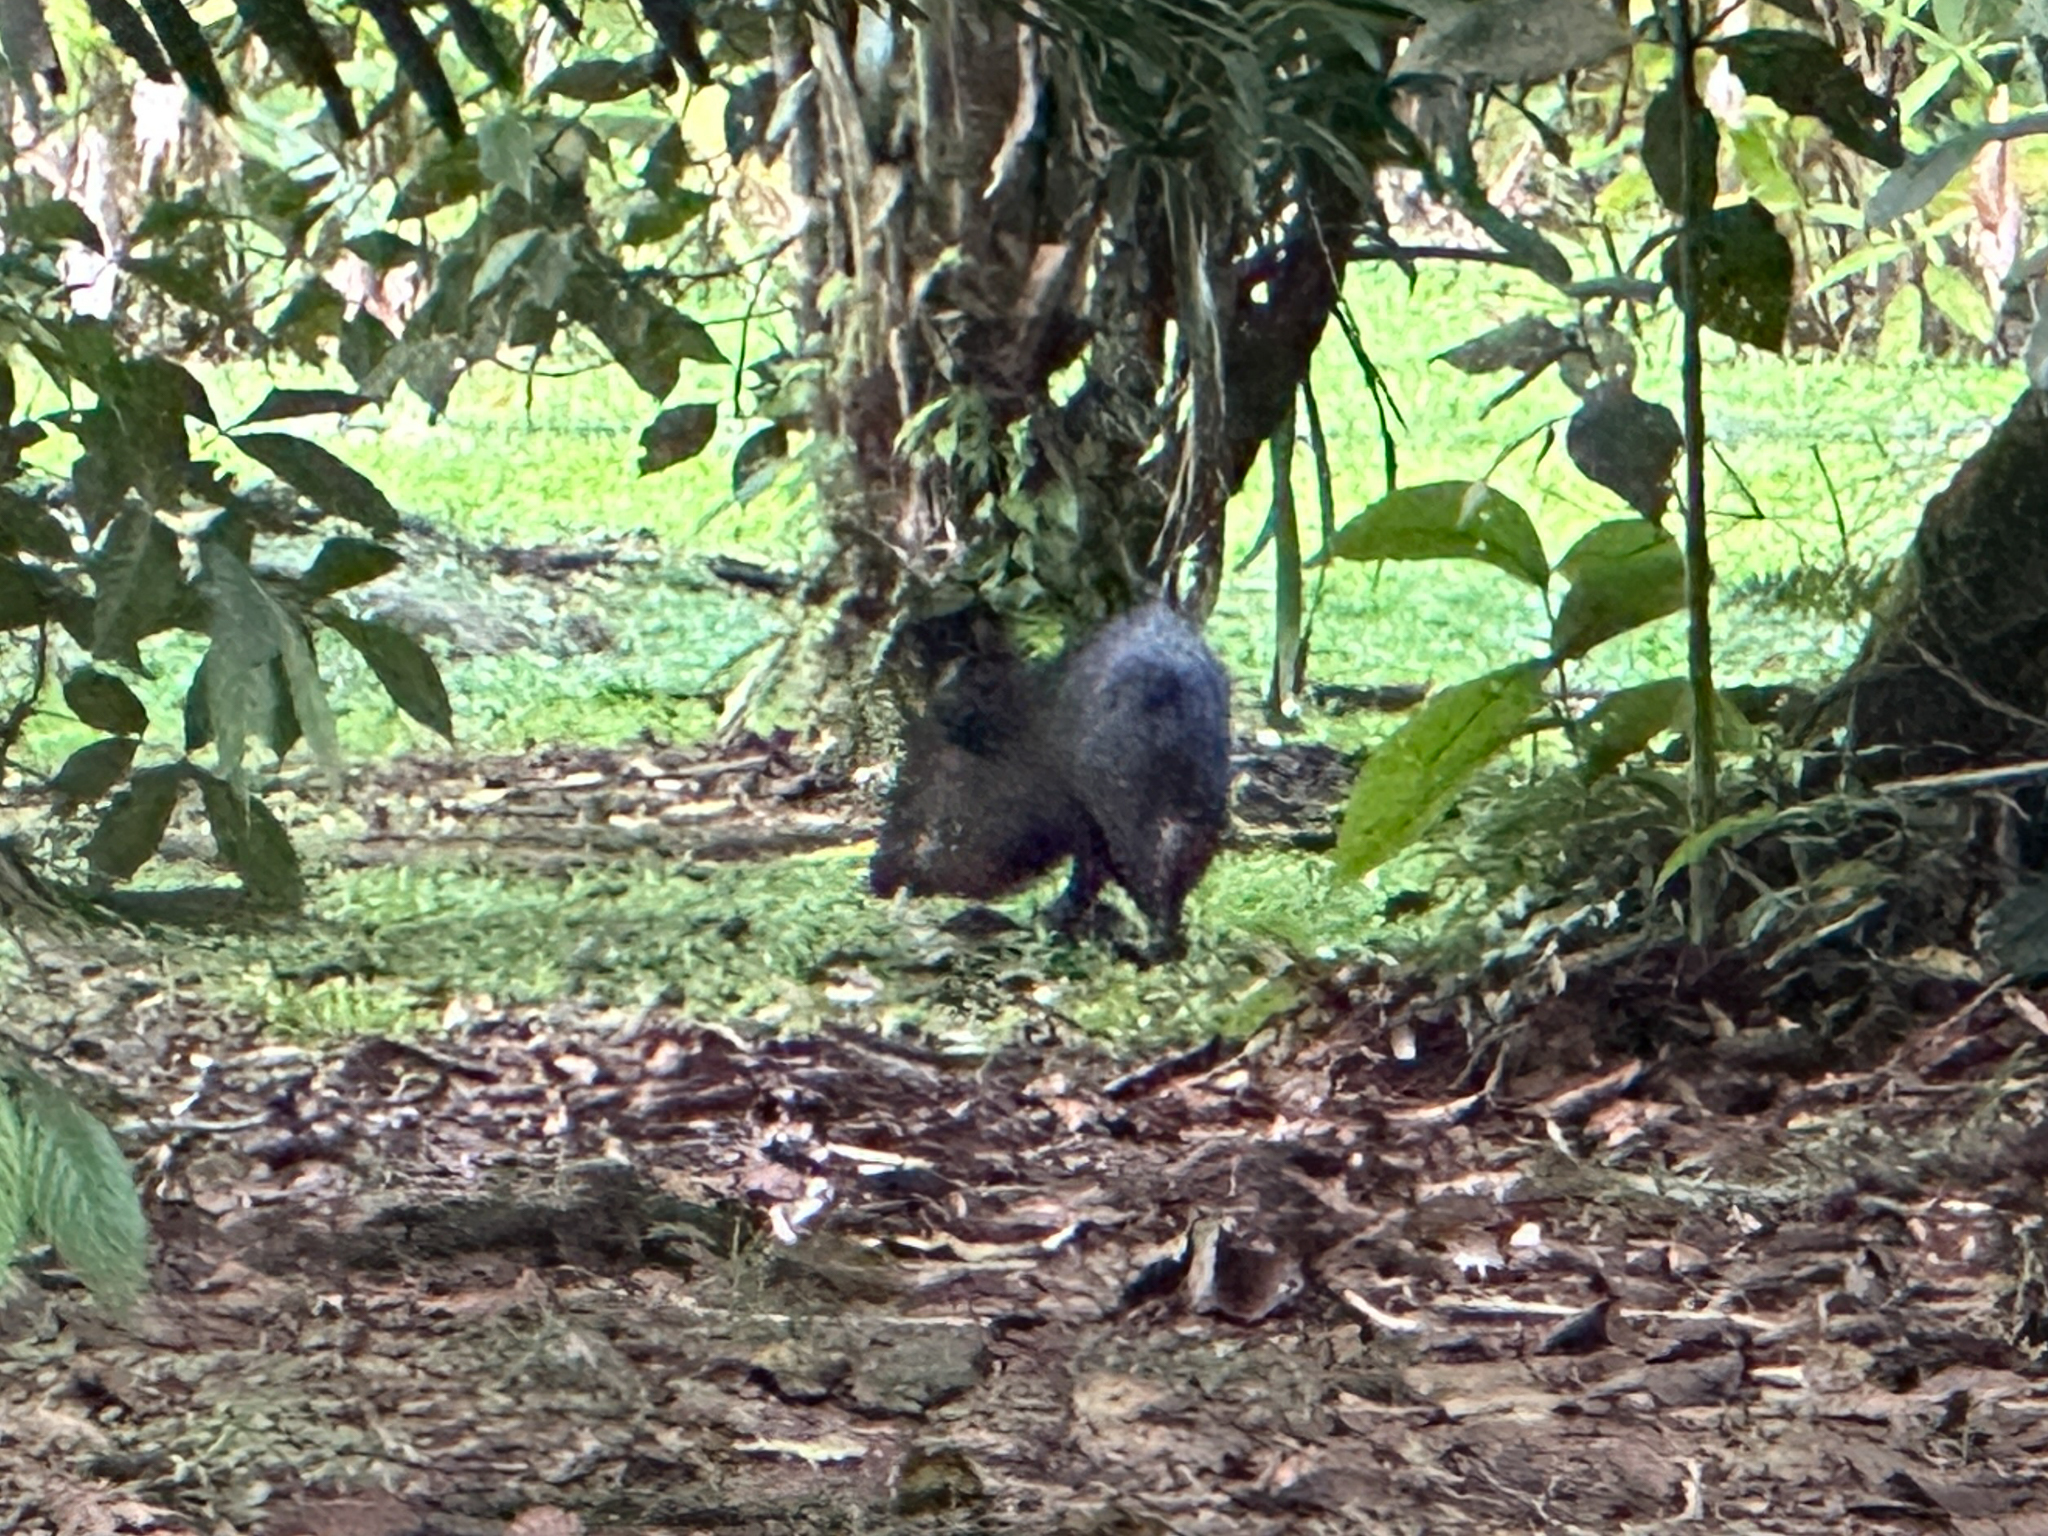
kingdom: Animalia
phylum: Chordata
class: Mammalia
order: Artiodactyla
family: Tayassuidae
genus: Pecari
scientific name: Pecari tajacu
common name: Collared peccary
